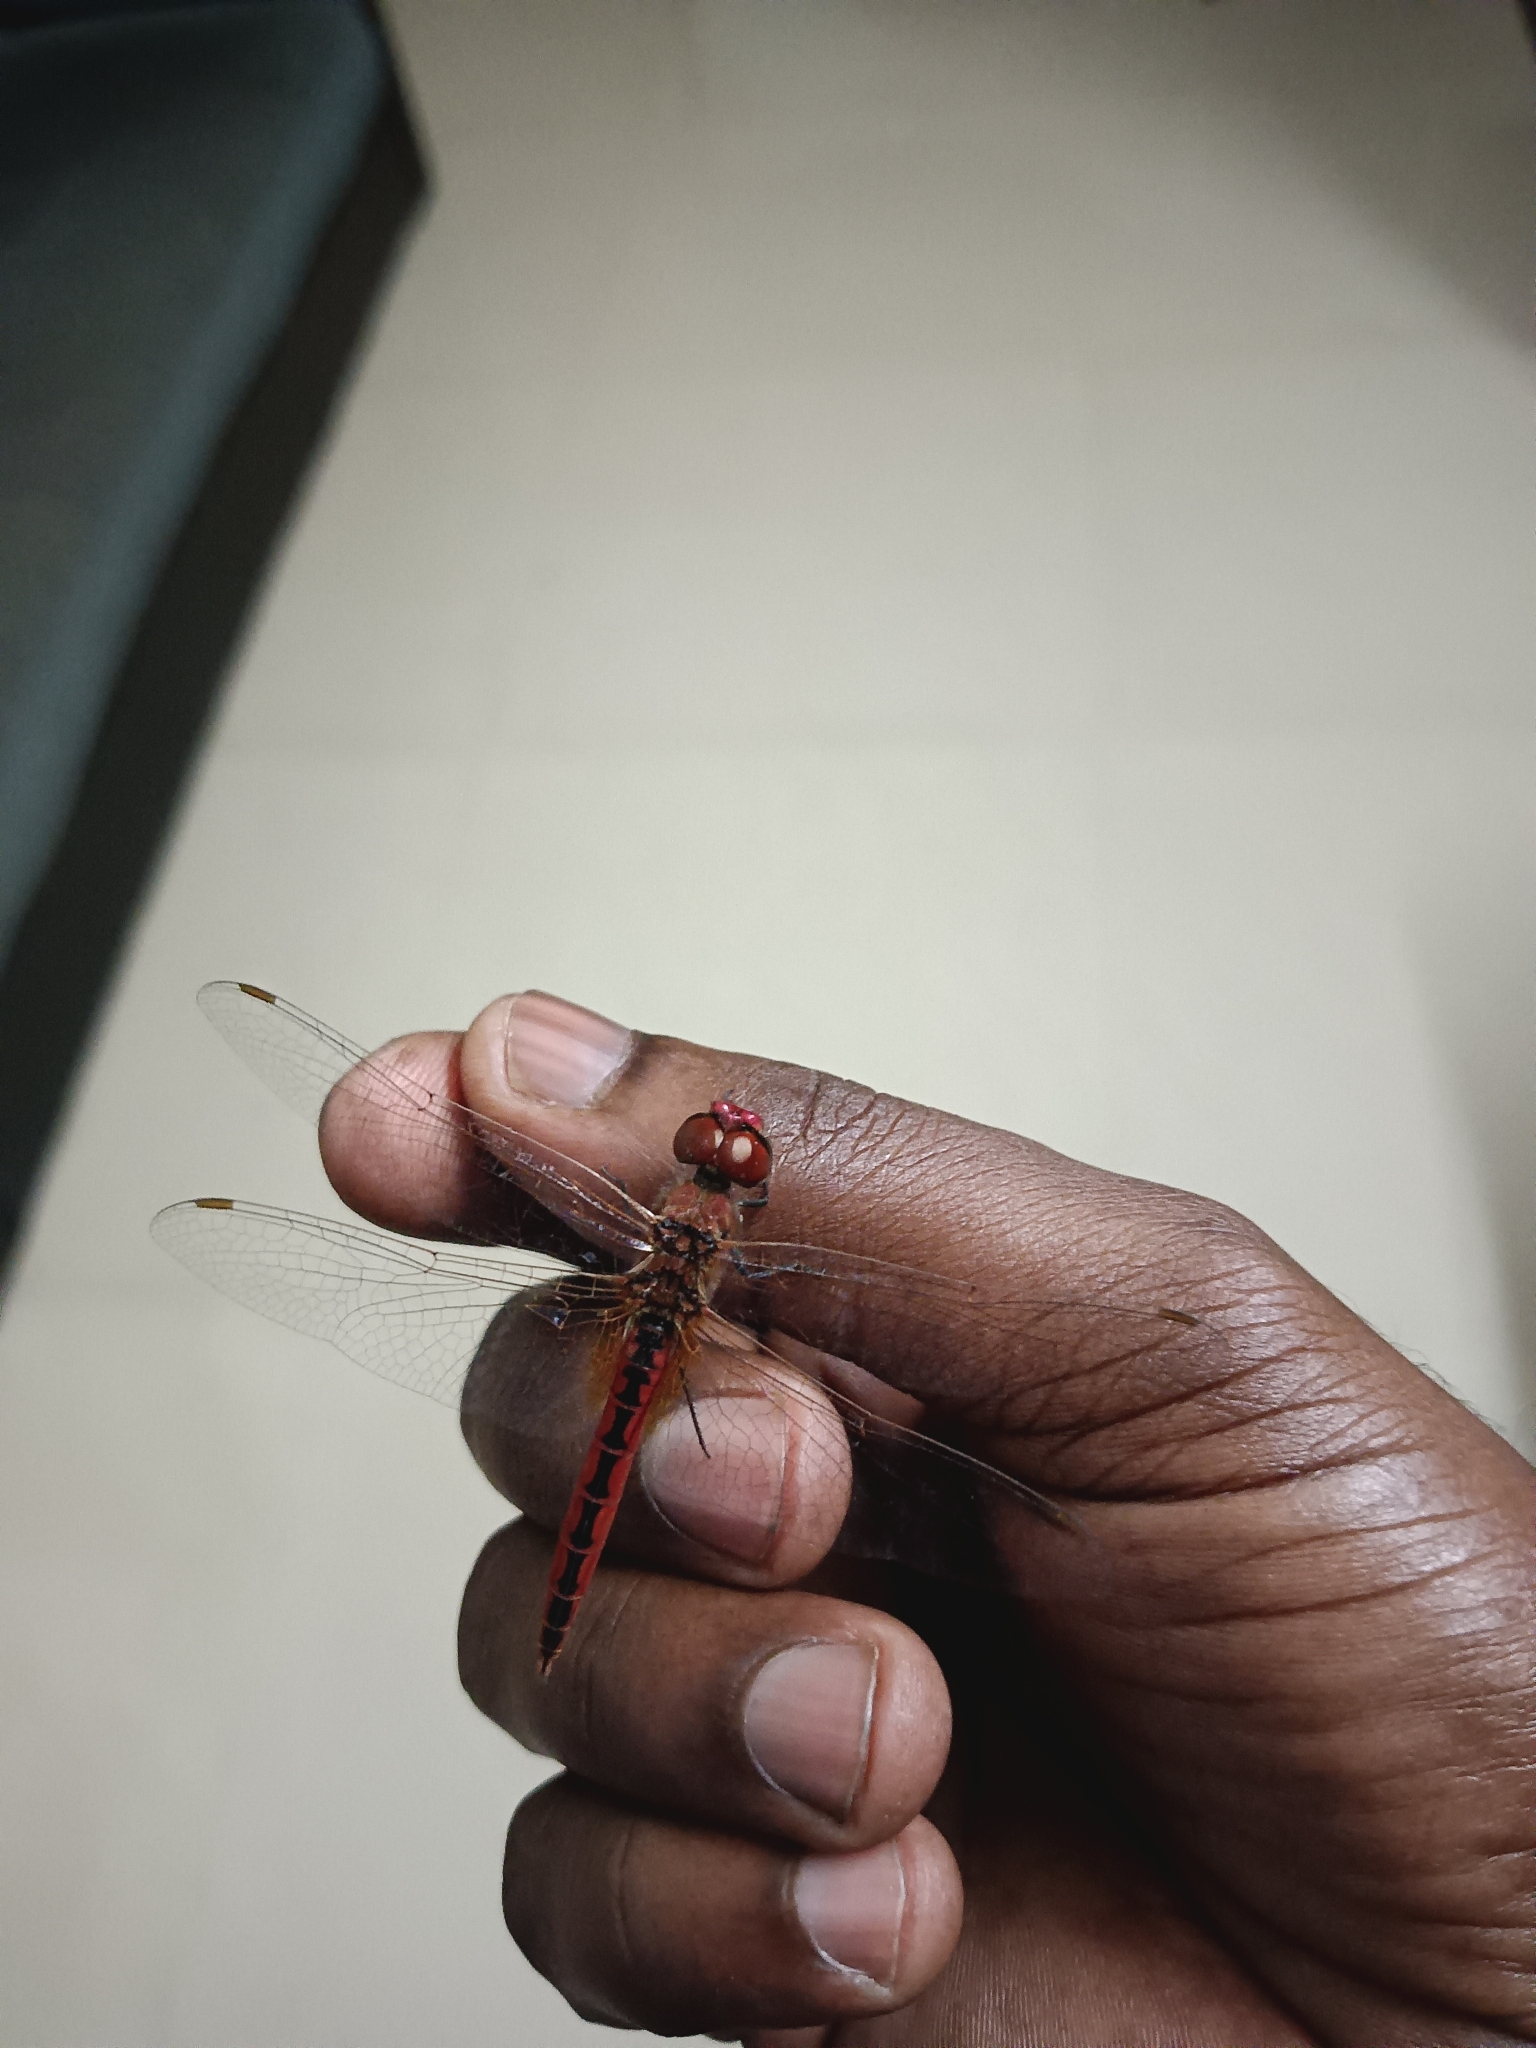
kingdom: Animalia
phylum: Arthropoda
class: Insecta
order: Odonata
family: Libellulidae
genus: Macrodiplax
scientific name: Macrodiplax cora
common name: Coastal glider
